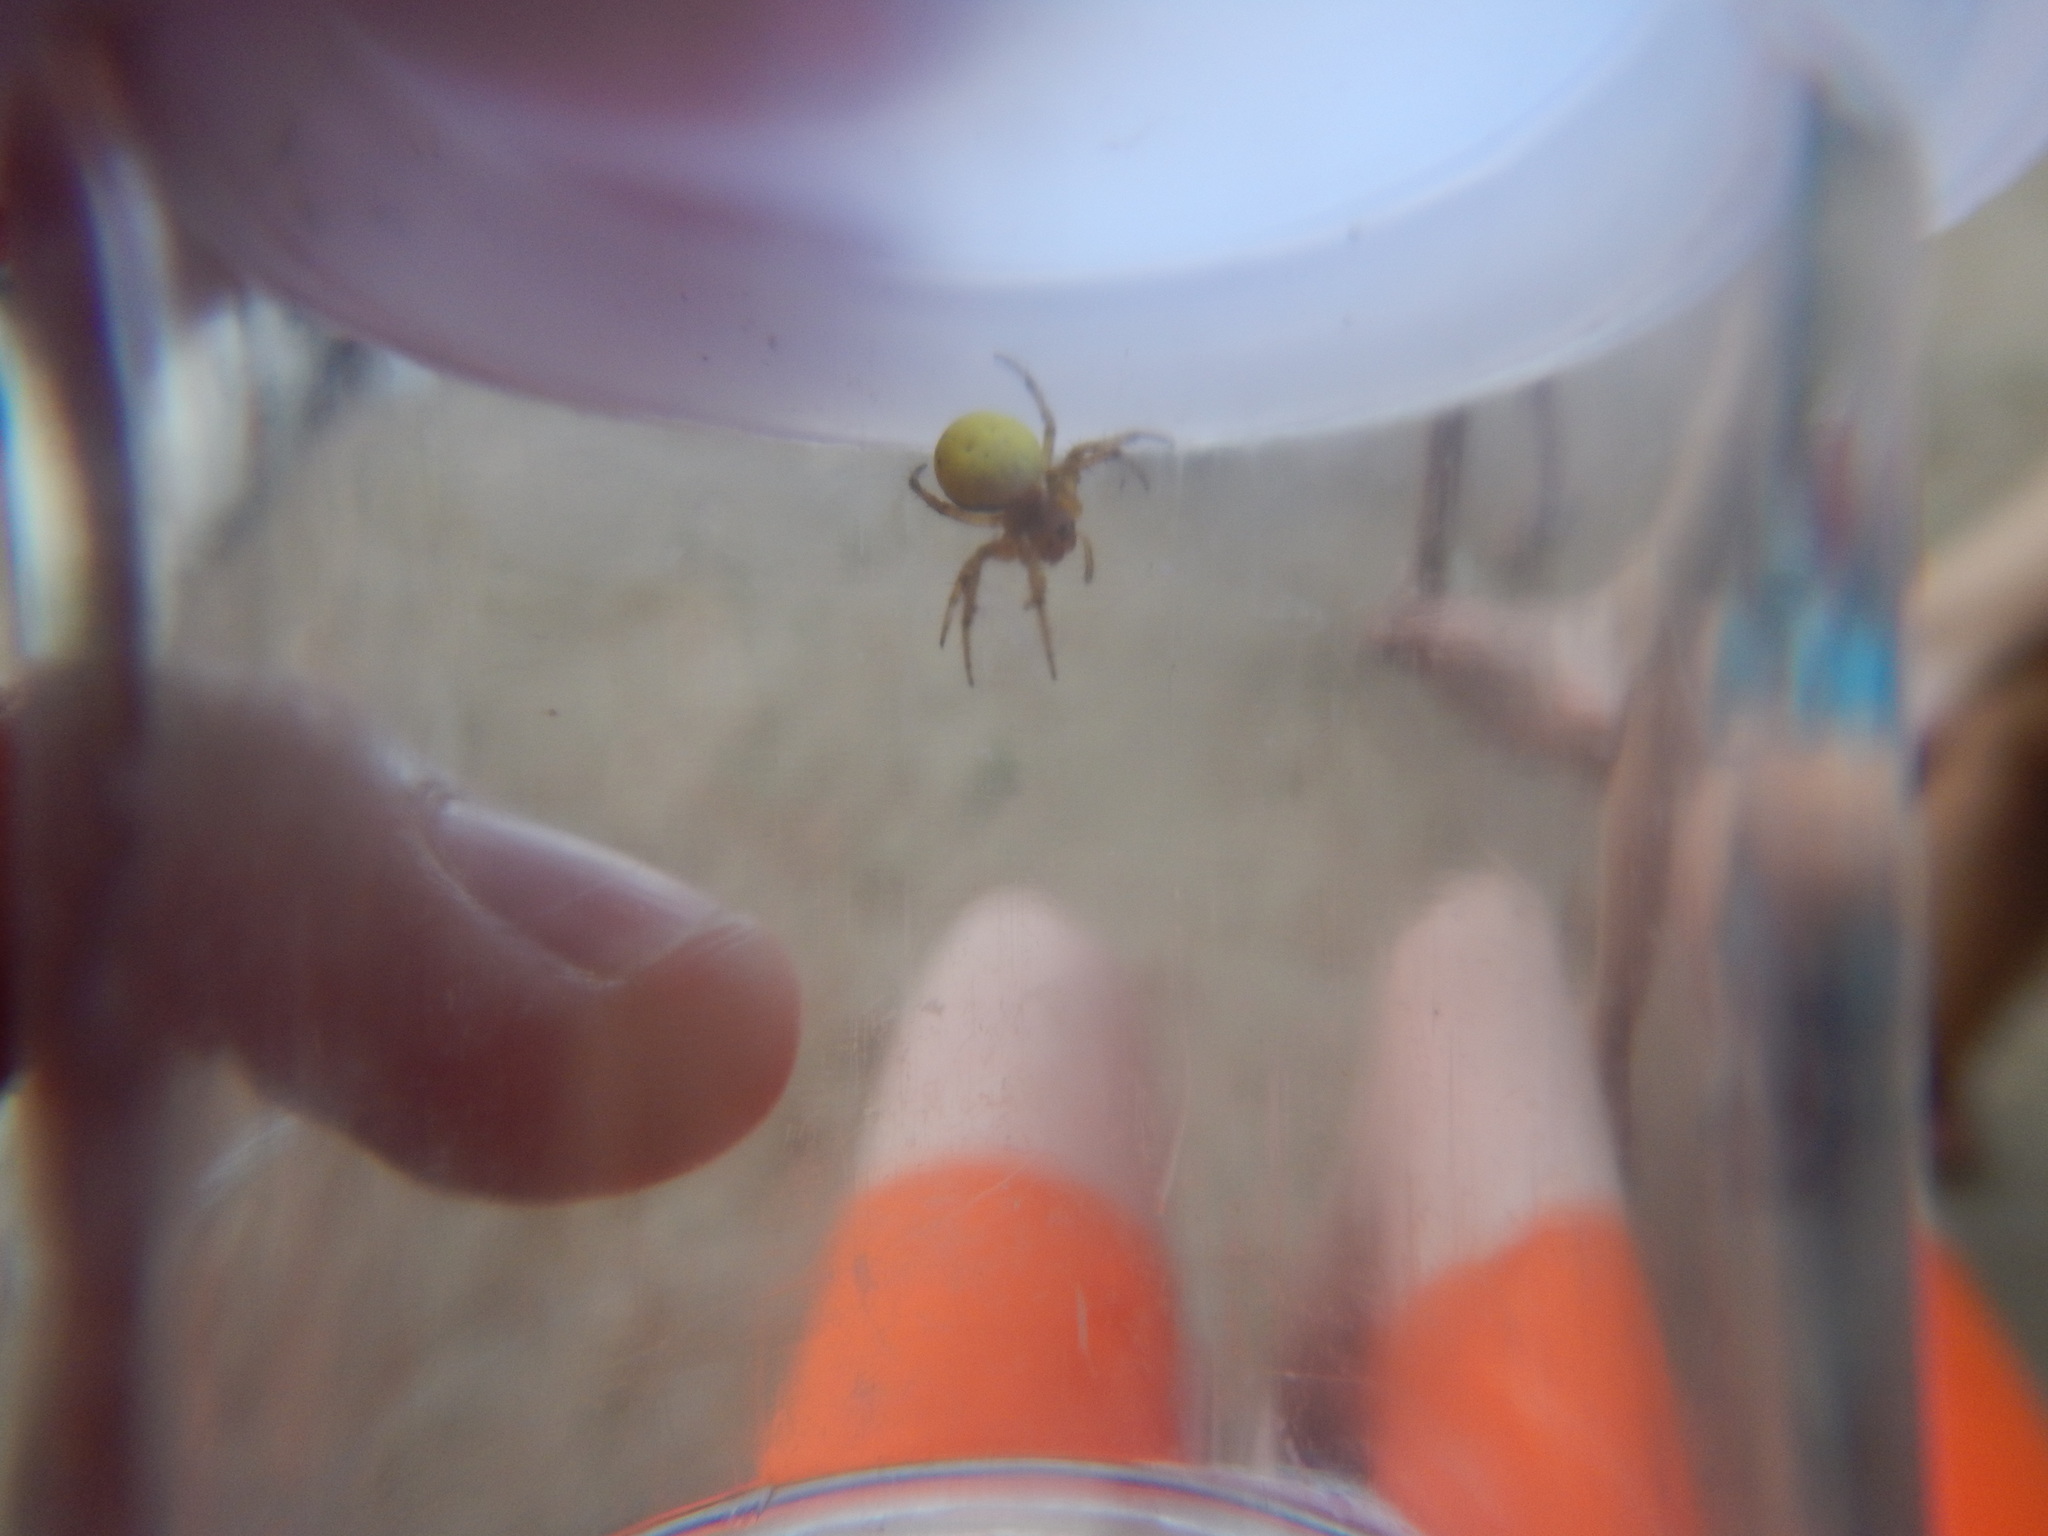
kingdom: Animalia
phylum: Arthropoda
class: Arachnida
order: Araneae
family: Araneidae
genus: Araniella
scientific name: Araniella displicata
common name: Sixspotted orb weaver
